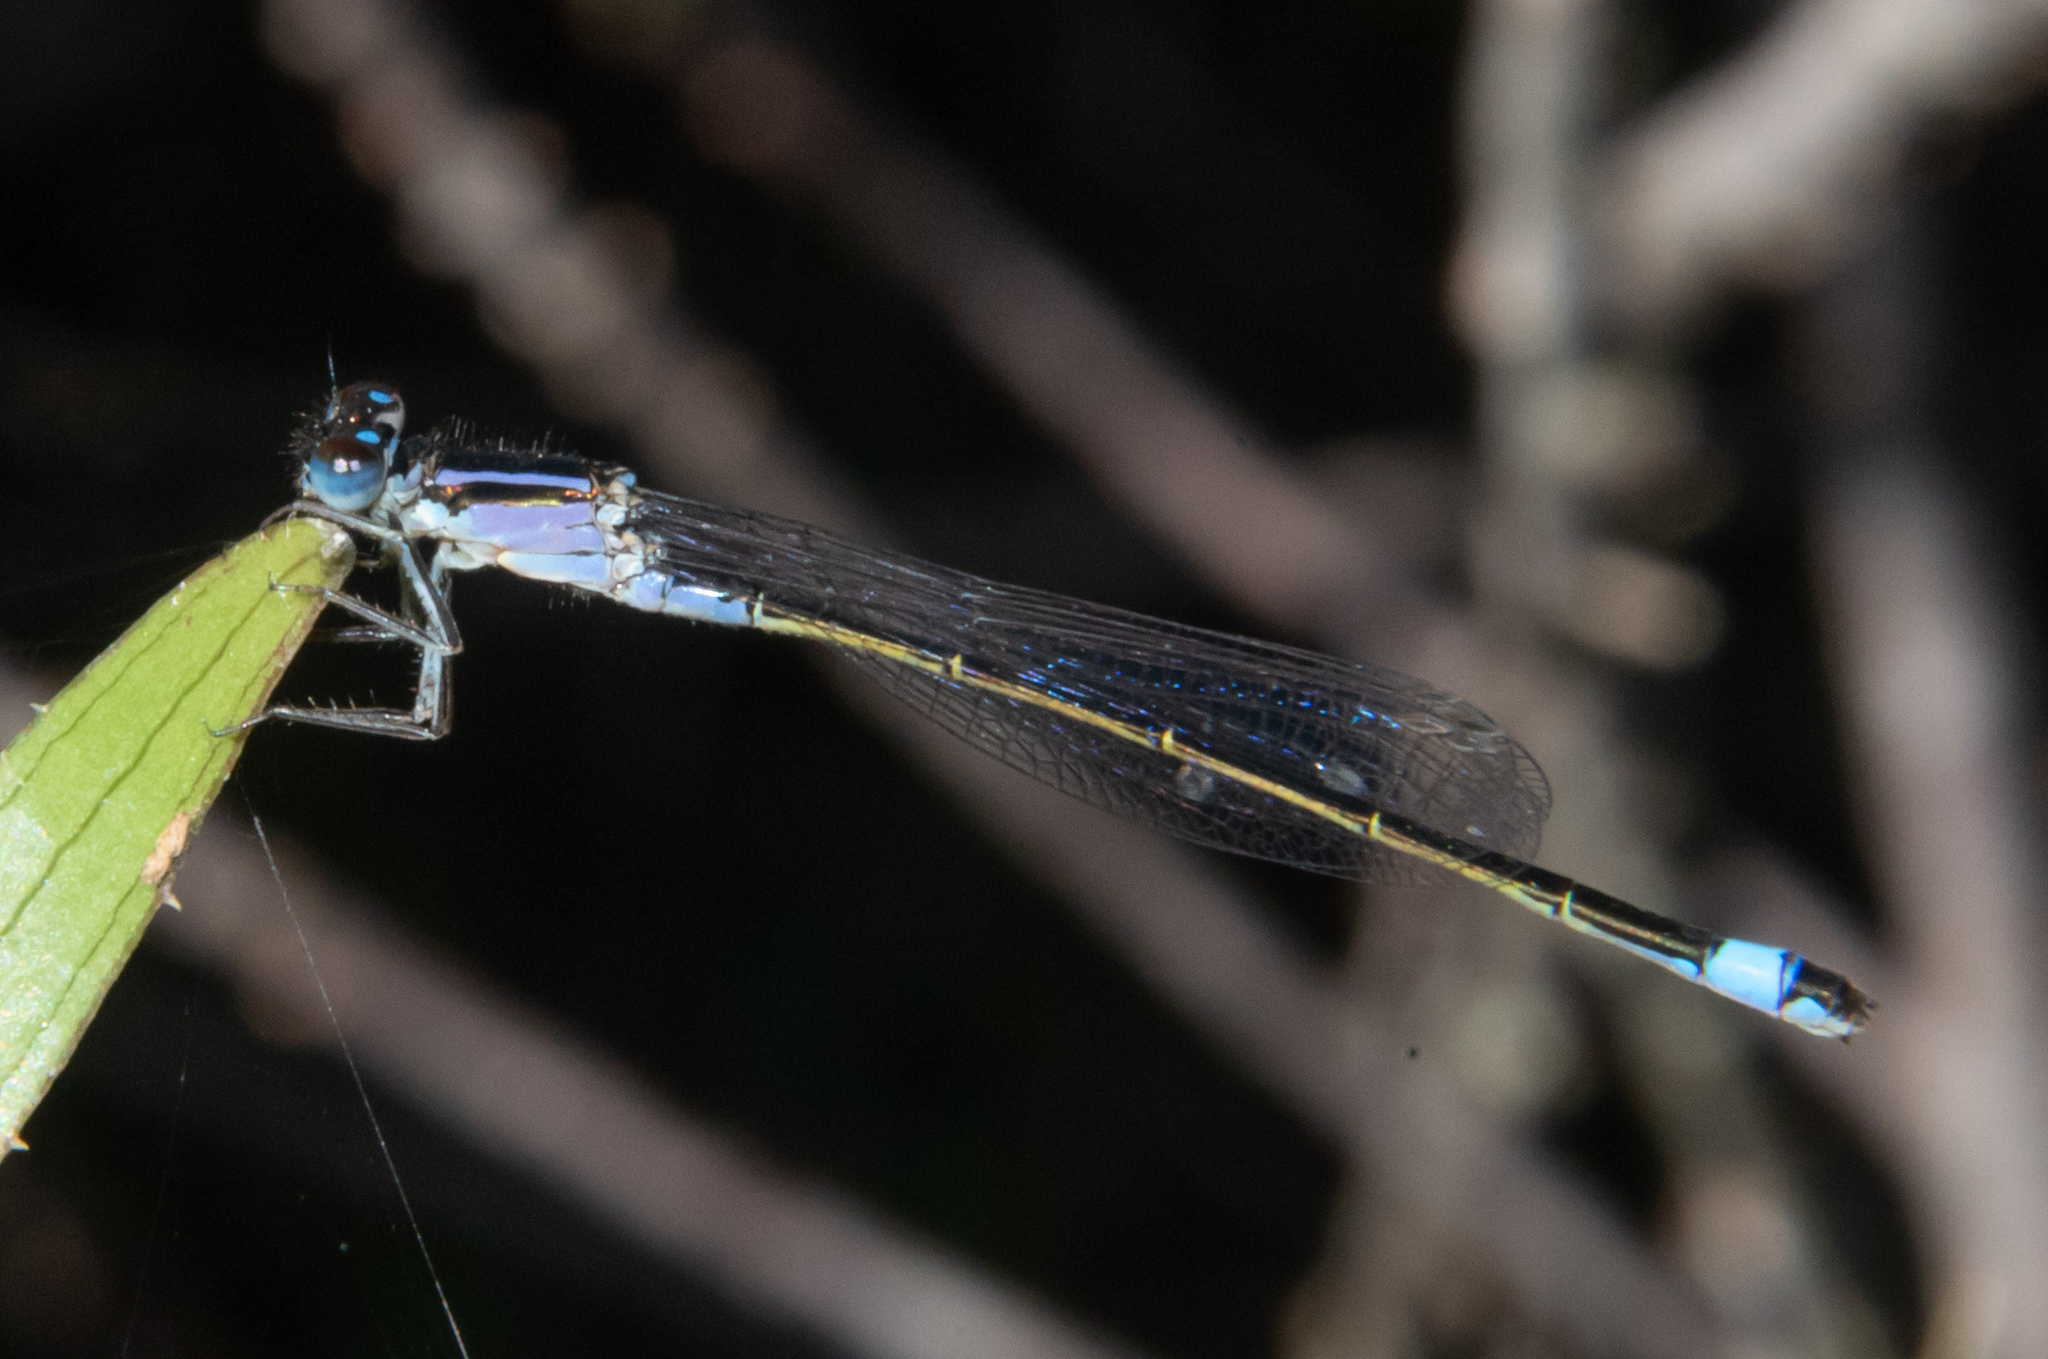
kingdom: Animalia
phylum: Arthropoda
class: Insecta
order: Odonata
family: Coenagrionidae
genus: Ischnura
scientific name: Ischnura elegans
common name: Blue-tailed damselfly
